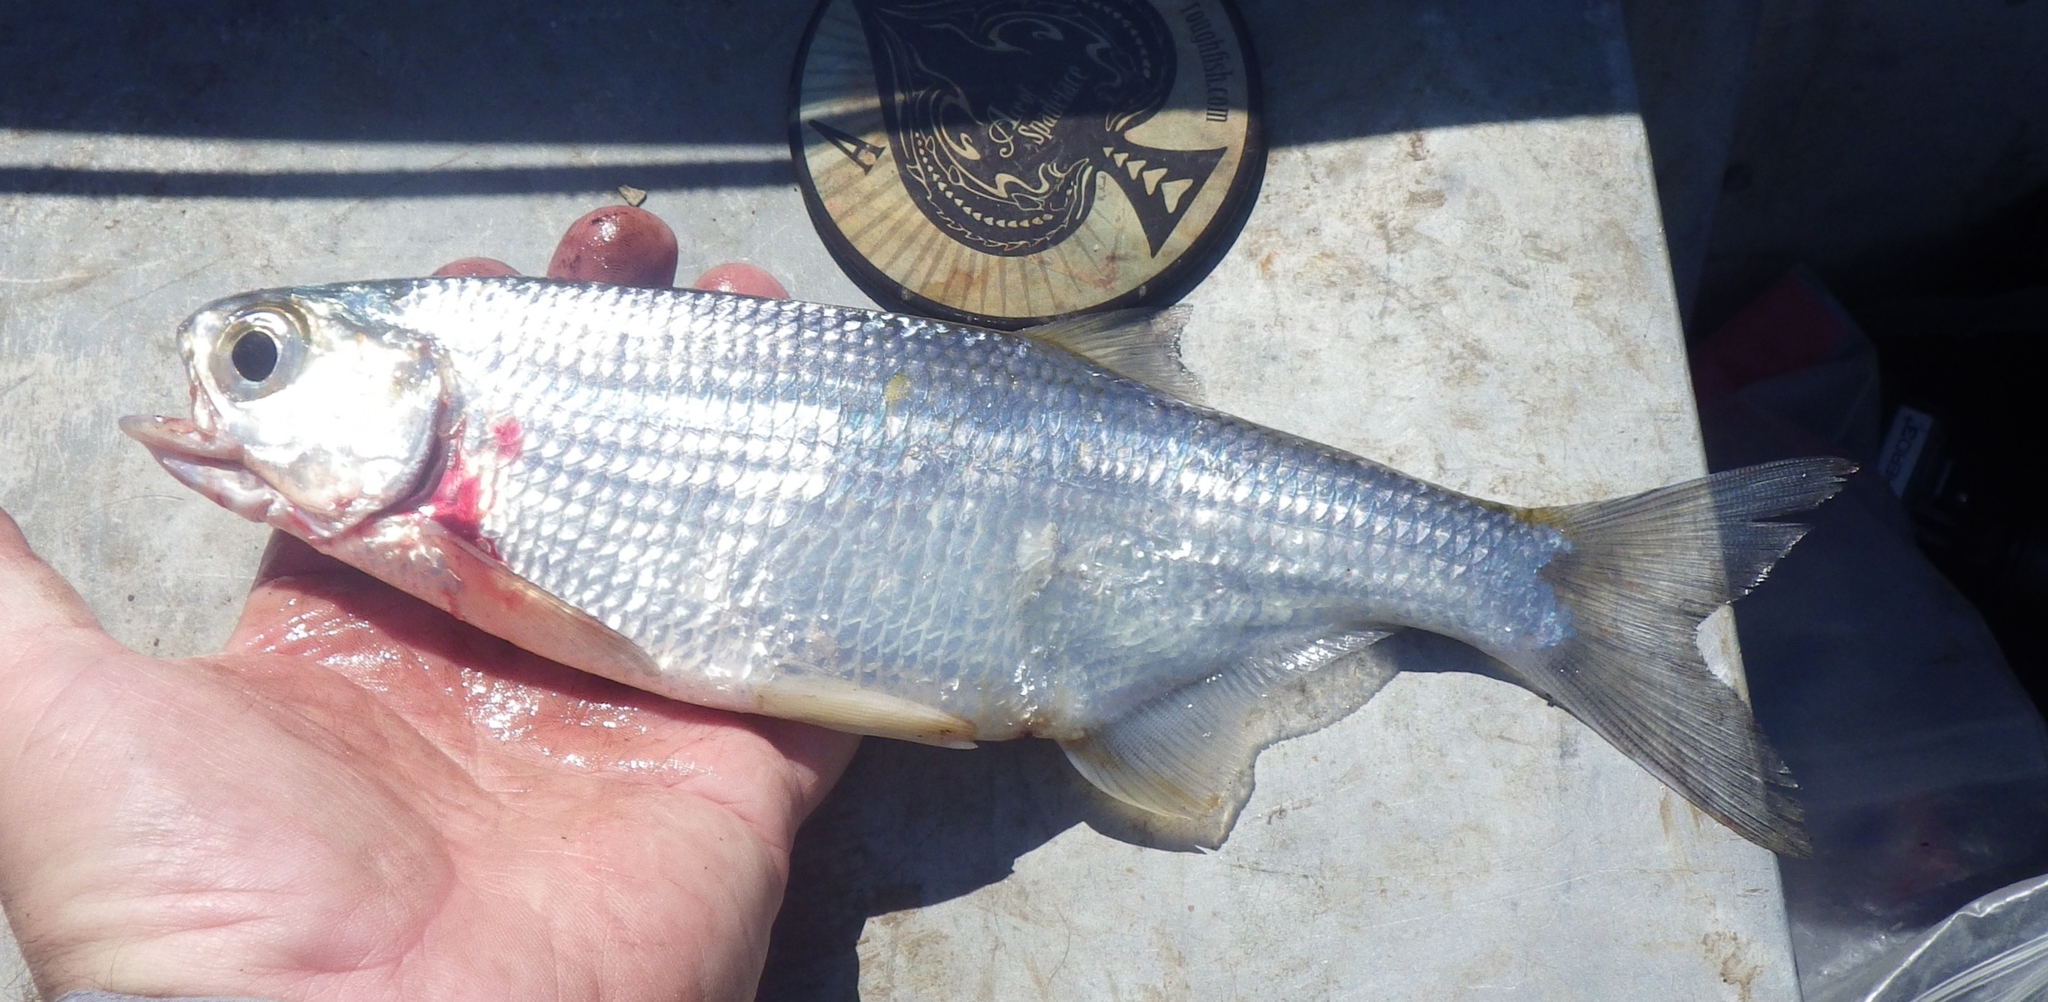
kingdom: Animalia
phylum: Chordata
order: Osteoglossiformes
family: Hiodontidae
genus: Hiodon
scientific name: Hiodon tergisus
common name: Mooneye
